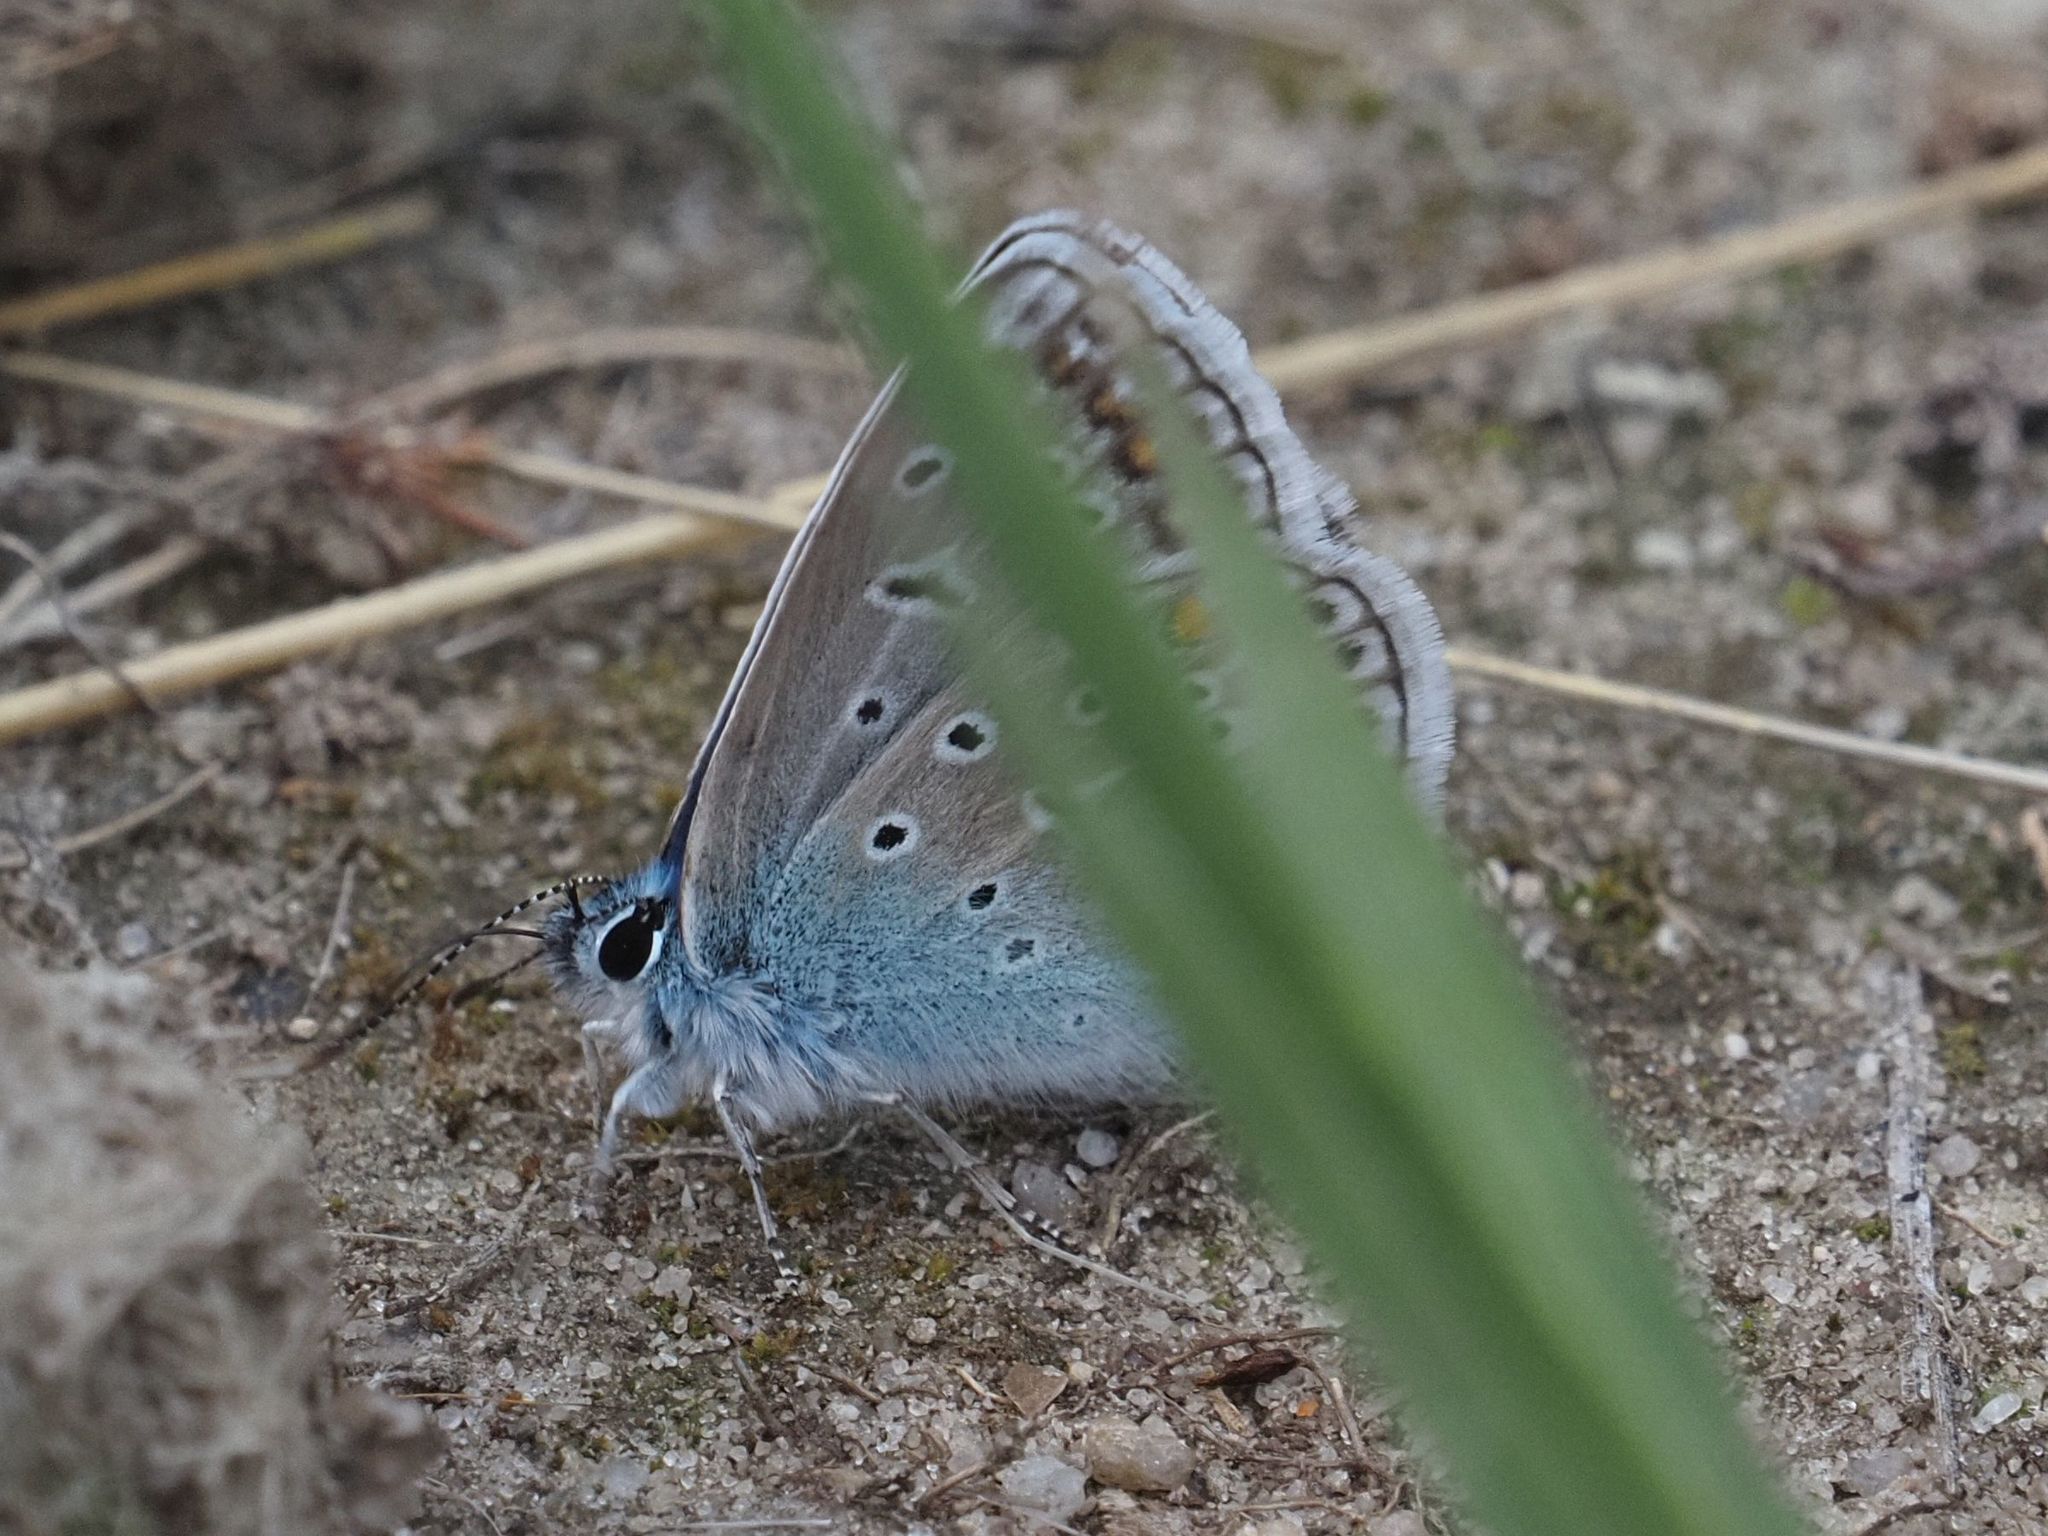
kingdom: Animalia
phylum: Arthropoda
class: Insecta
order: Lepidoptera
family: Lycaenidae
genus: Polyommatus
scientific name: Polyommatus icarus
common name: Common blue
